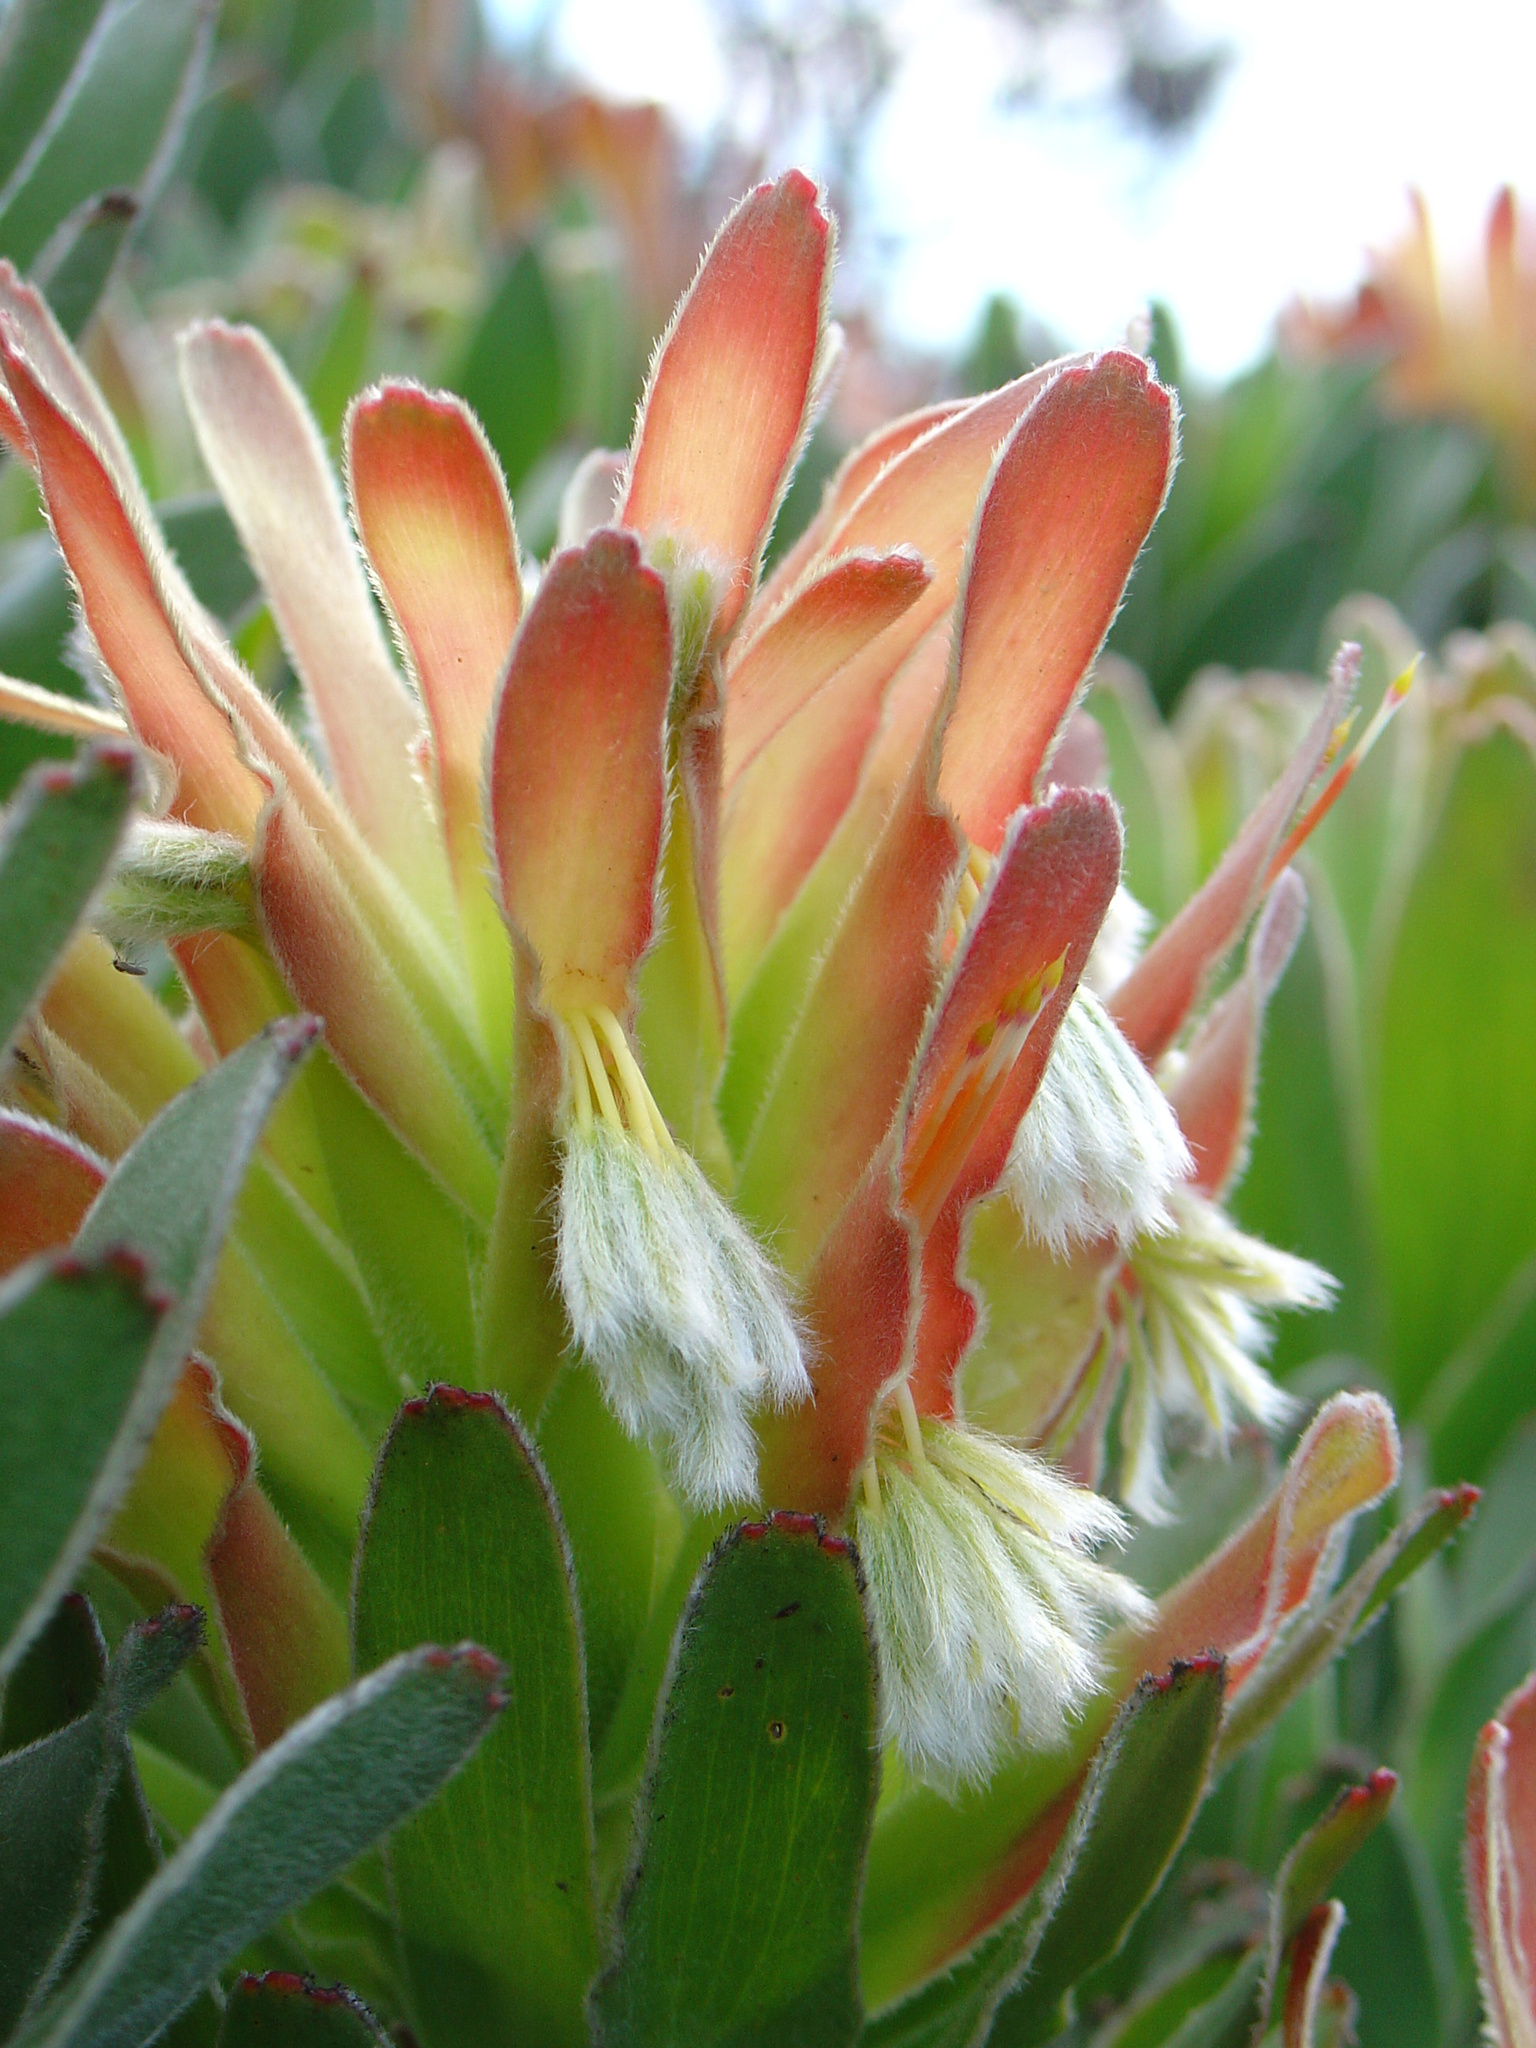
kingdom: Plantae
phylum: Tracheophyta
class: Magnoliopsida
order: Proteales
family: Proteaceae
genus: Mimetes
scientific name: Mimetes fimbriifolius
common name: Fringed bottlebrush
